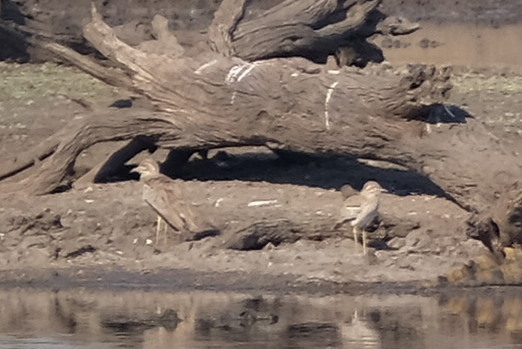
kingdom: Animalia
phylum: Chordata
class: Aves
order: Charadriiformes
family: Burhinidae
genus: Burhinus
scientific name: Burhinus vermiculatus
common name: Water thick-knee
